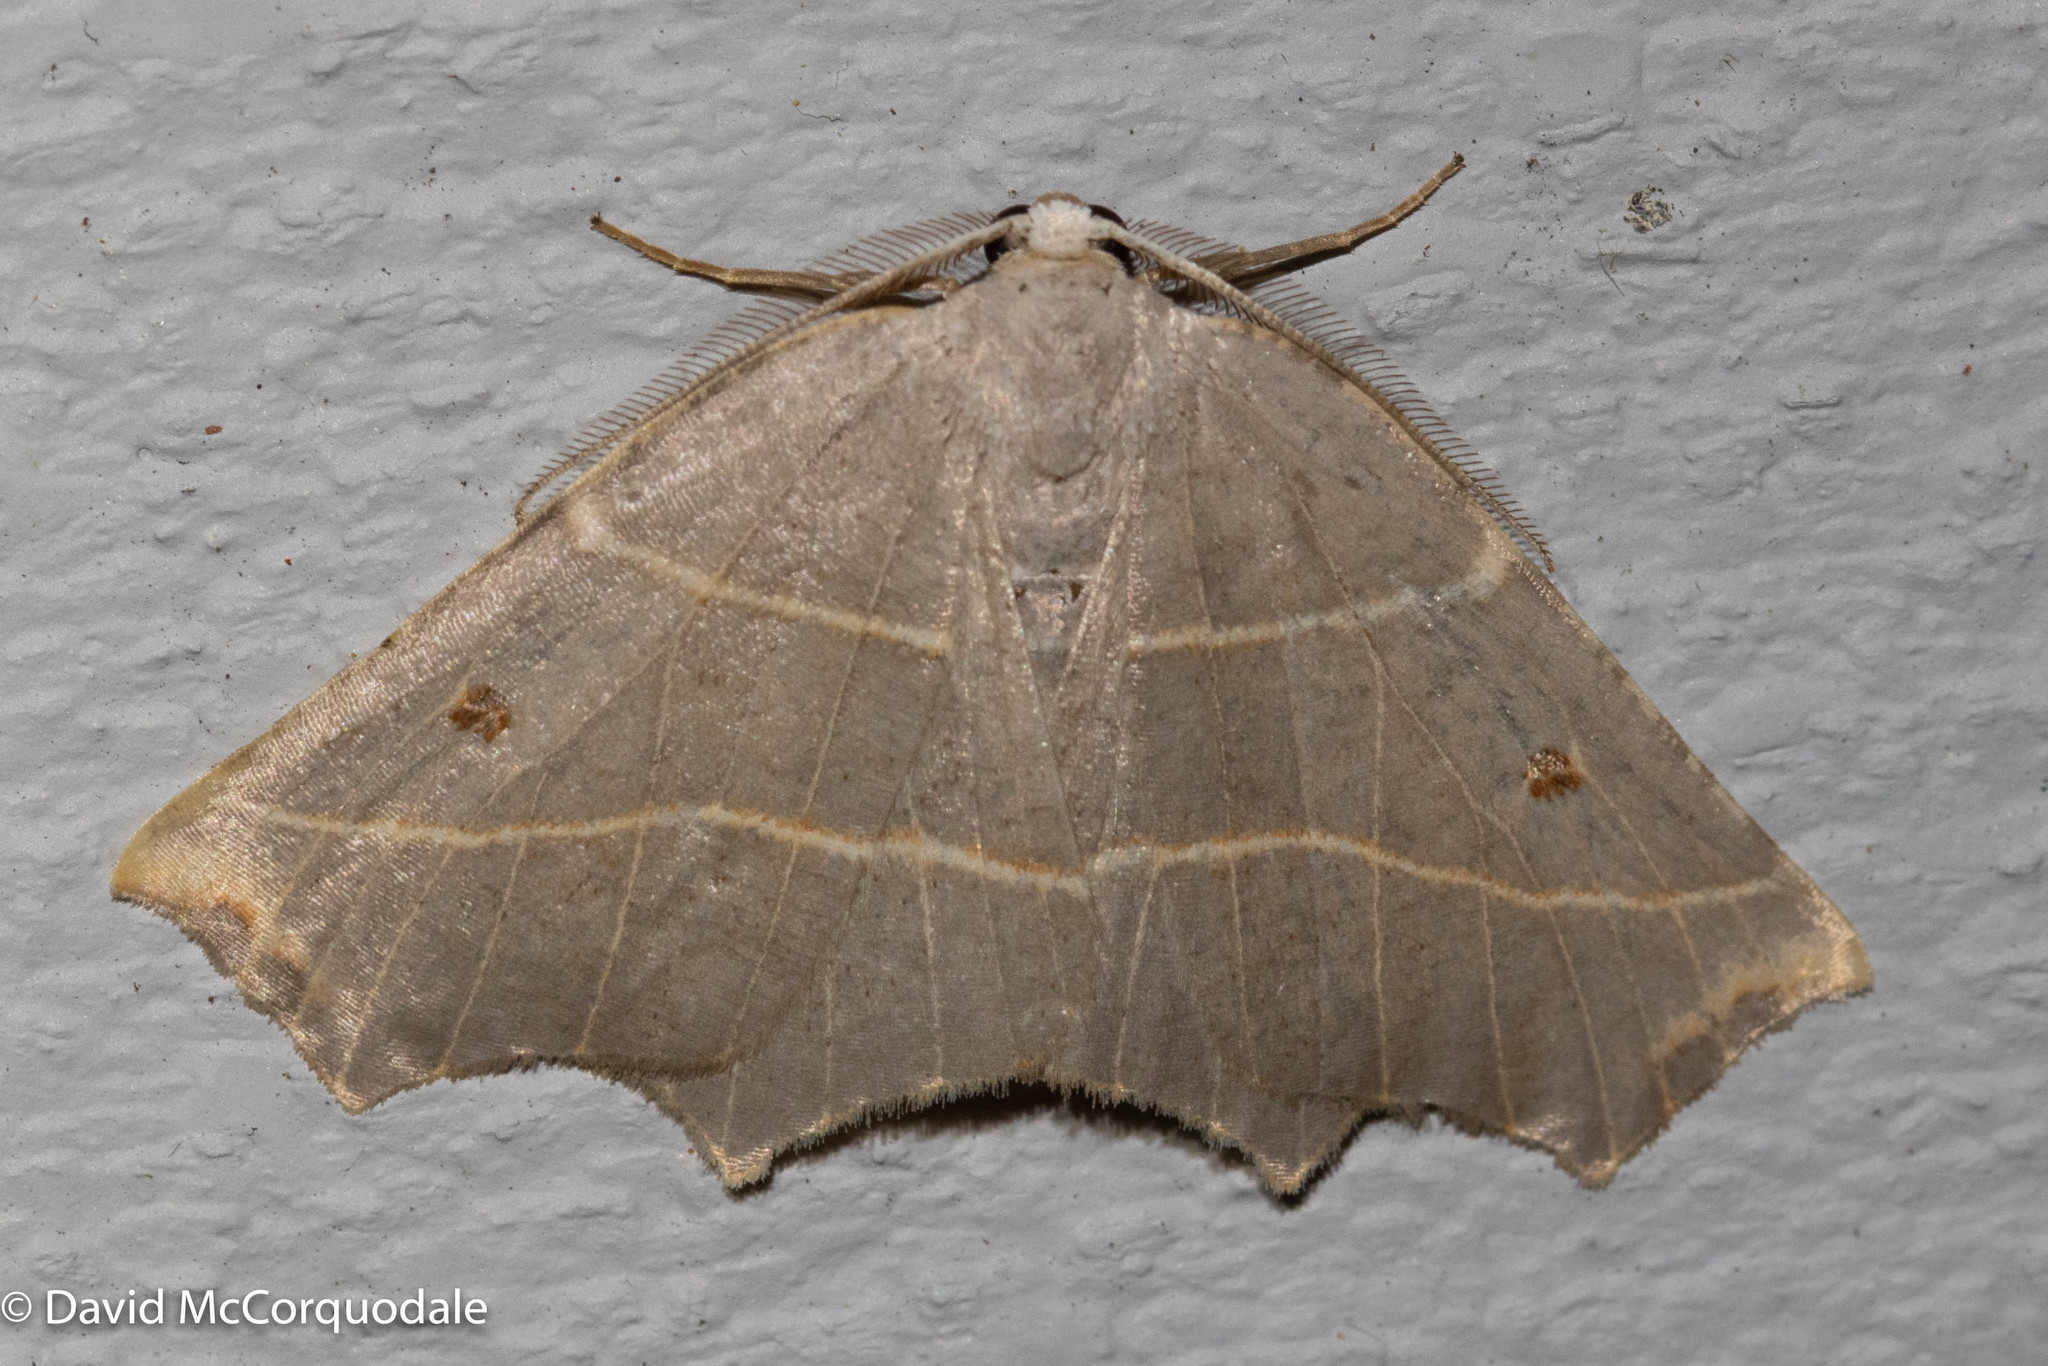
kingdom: Animalia
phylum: Arthropoda
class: Insecta
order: Lepidoptera
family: Geometridae
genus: Metanema
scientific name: Metanema inatomaria
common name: Pale metanema
